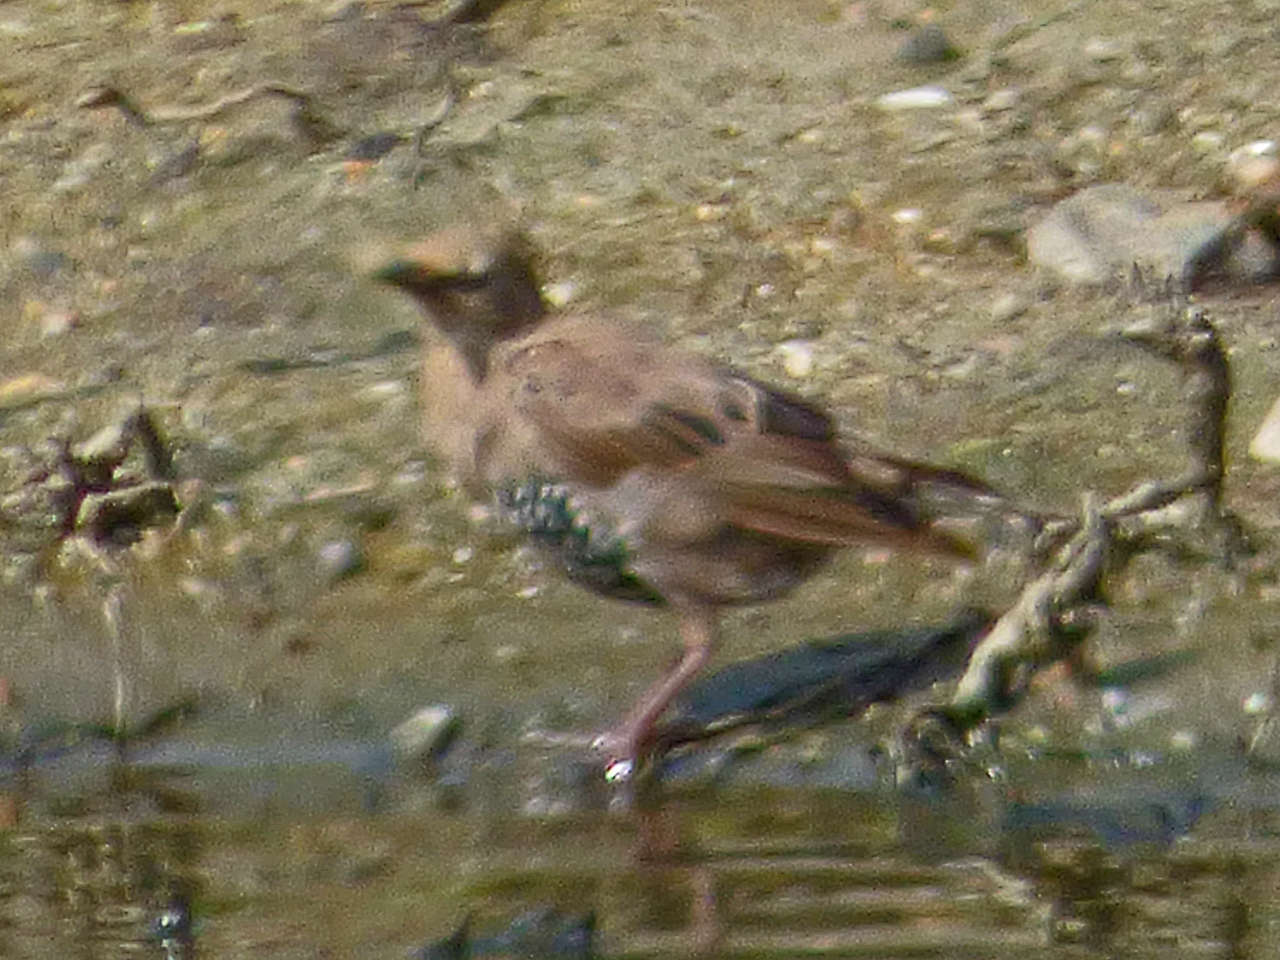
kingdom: Animalia
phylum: Chordata
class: Aves
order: Passeriformes
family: Sturnidae
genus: Sturnus
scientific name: Sturnus vulgaris
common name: Common starling
